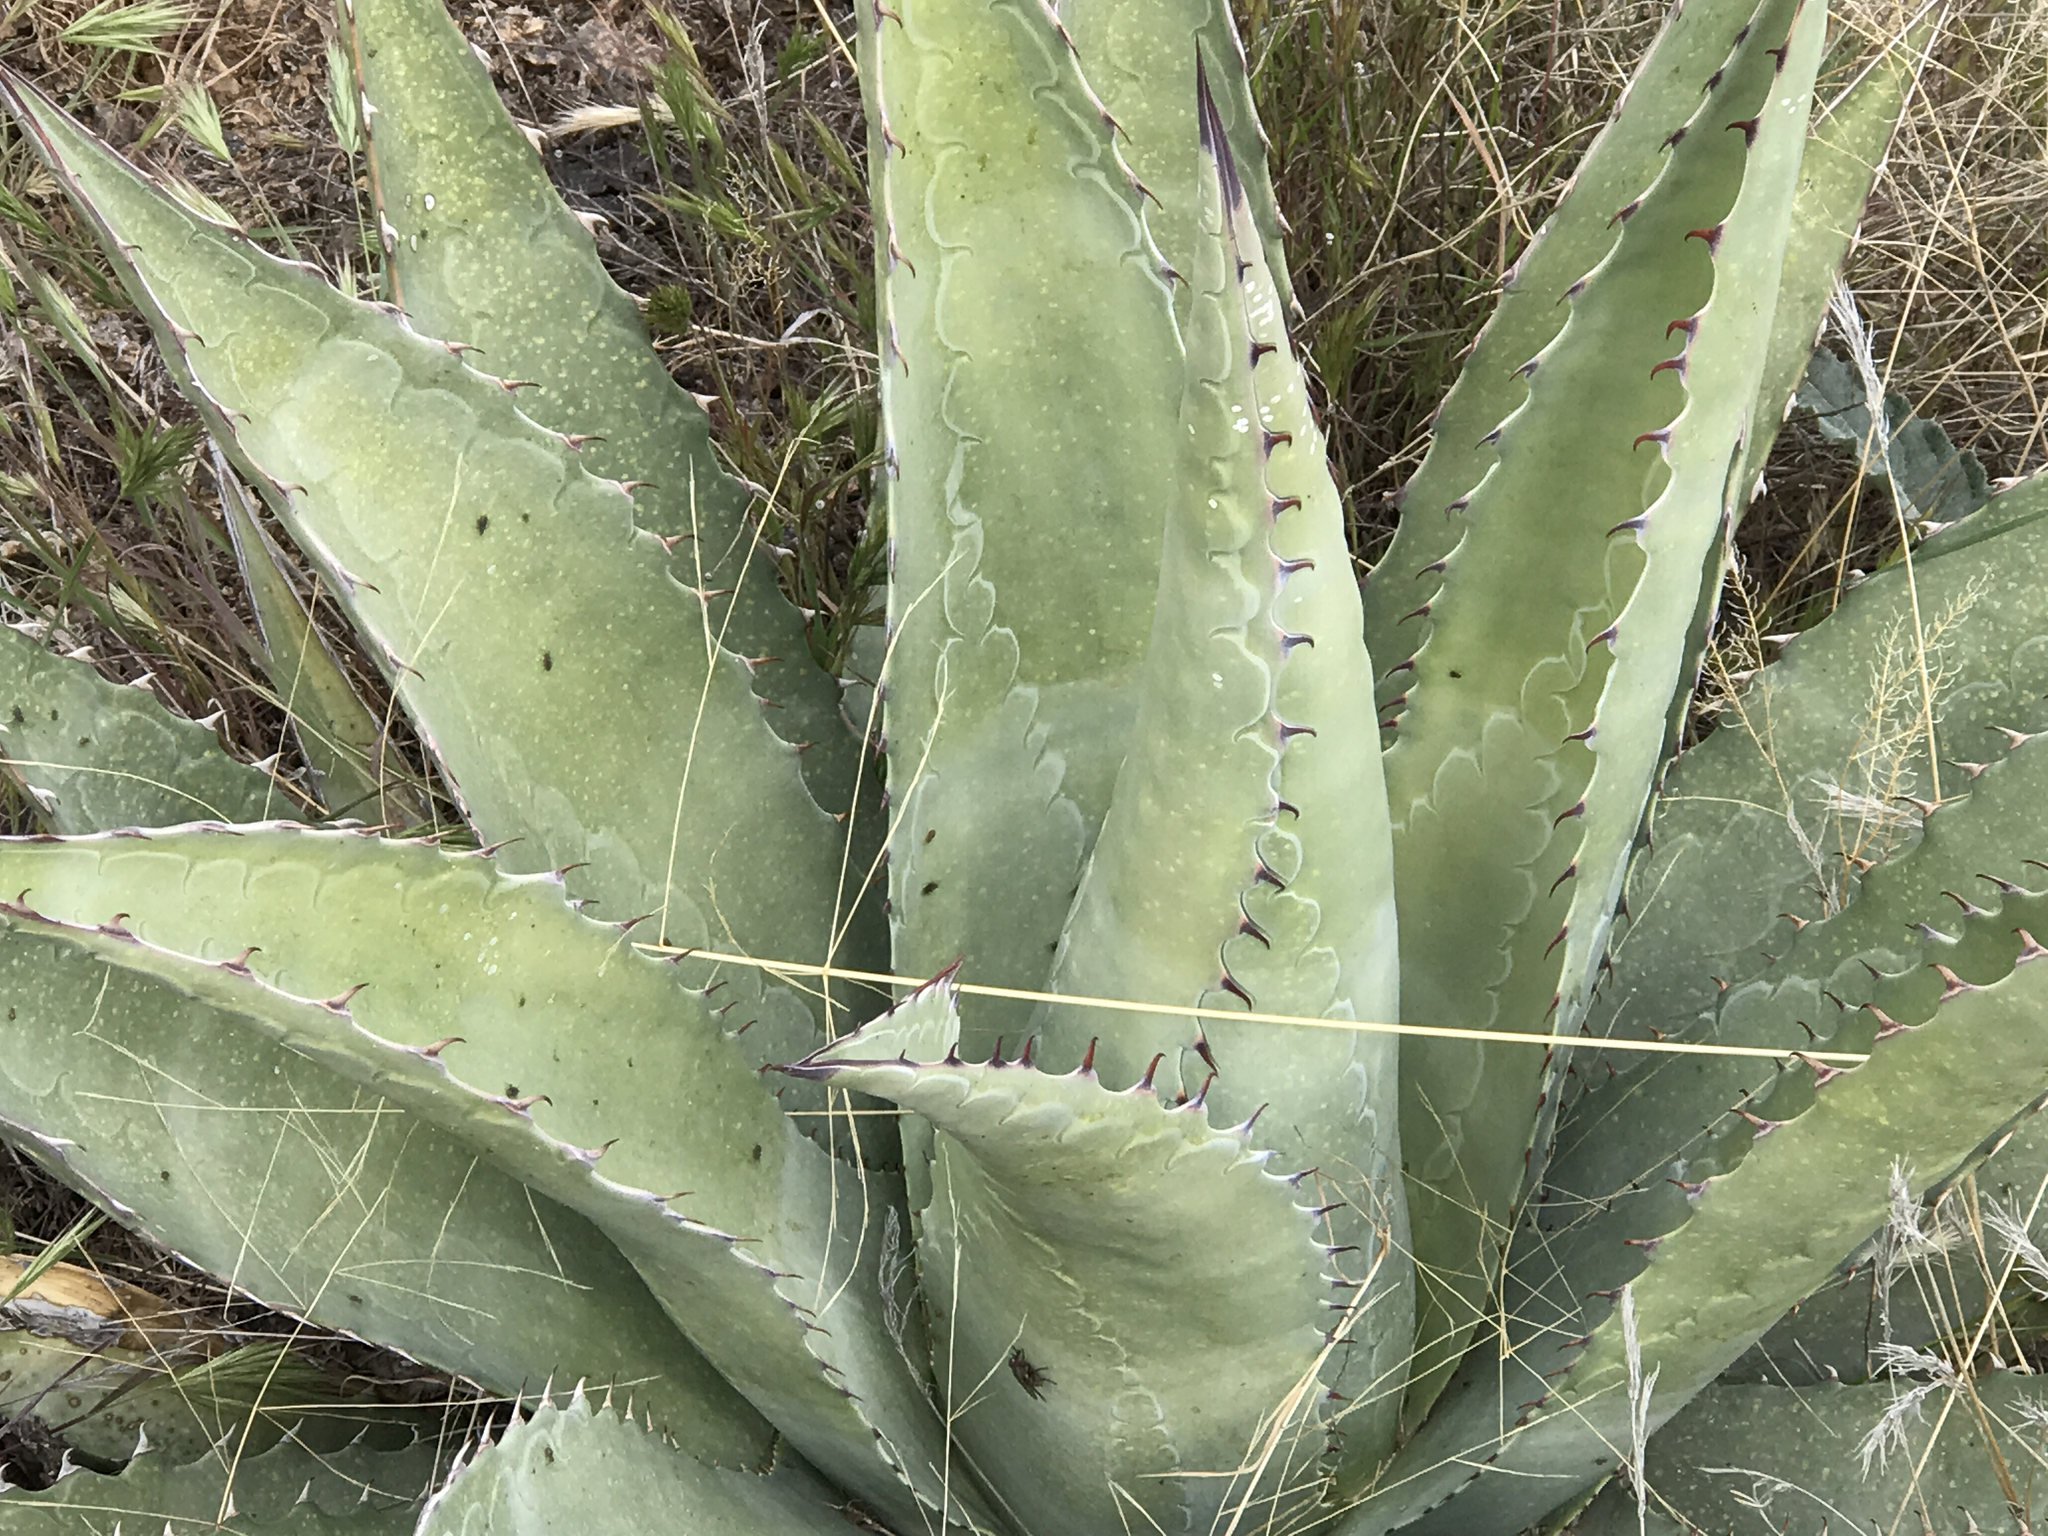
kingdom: Plantae
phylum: Tracheophyta
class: Liliopsida
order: Asparagales
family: Asparagaceae
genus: Agave
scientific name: Agave palmeri
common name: Palmer agave
